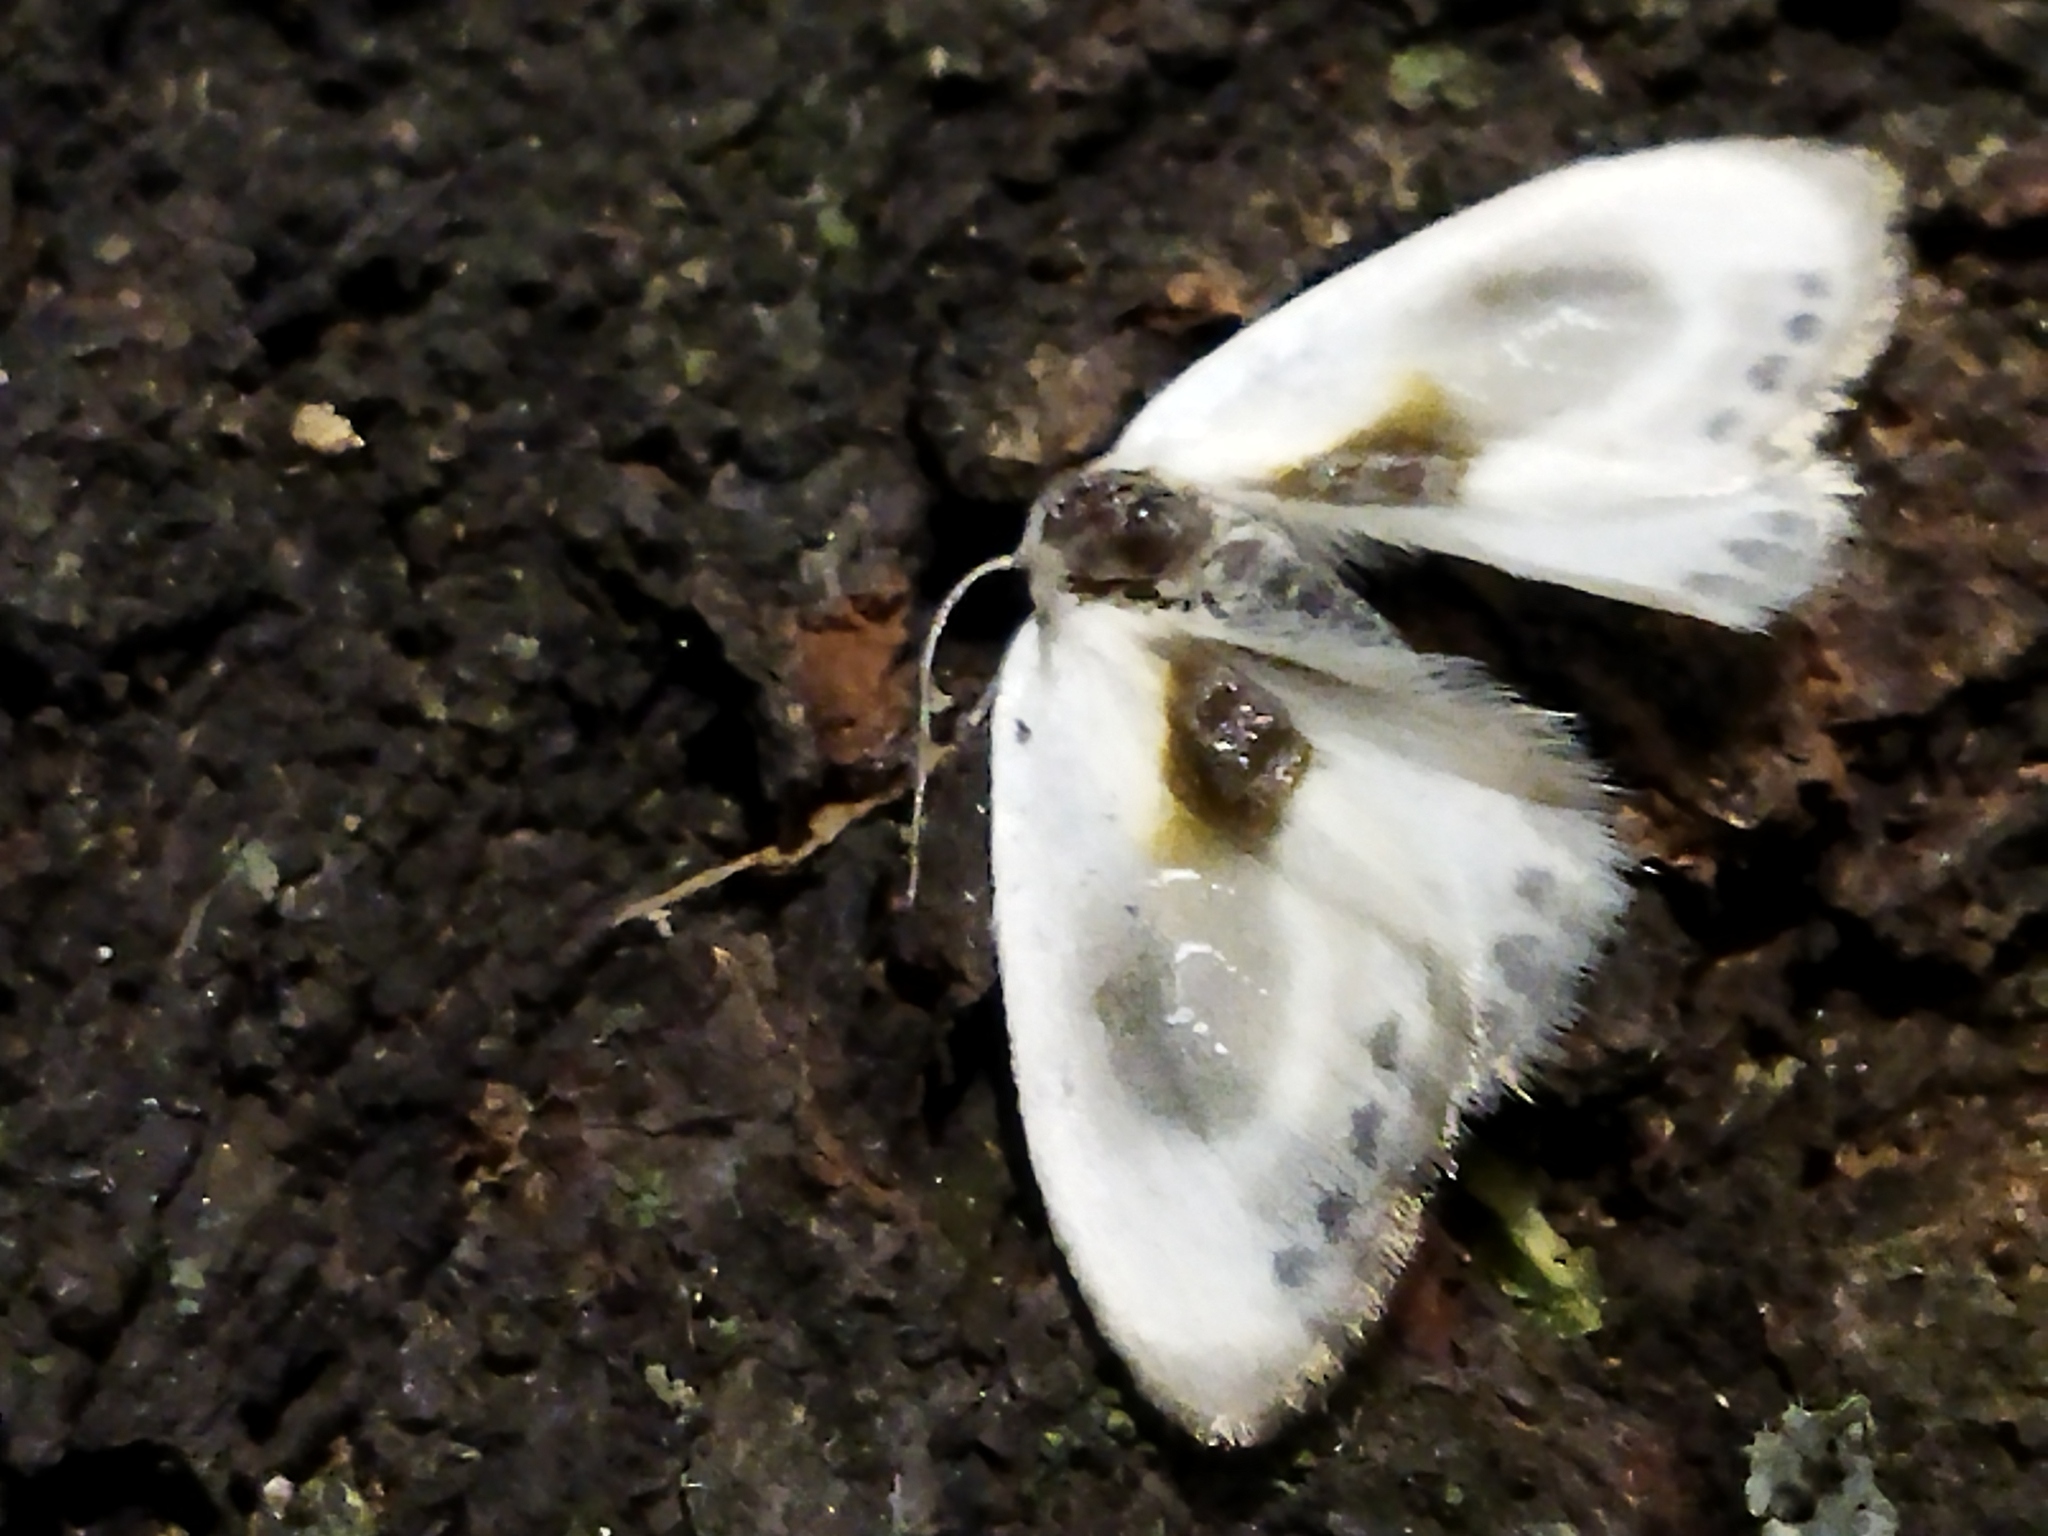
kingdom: Animalia
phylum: Arthropoda
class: Insecta
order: Lepidoptera
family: Drepanidae
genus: Cilix
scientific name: Cilix asiatica
